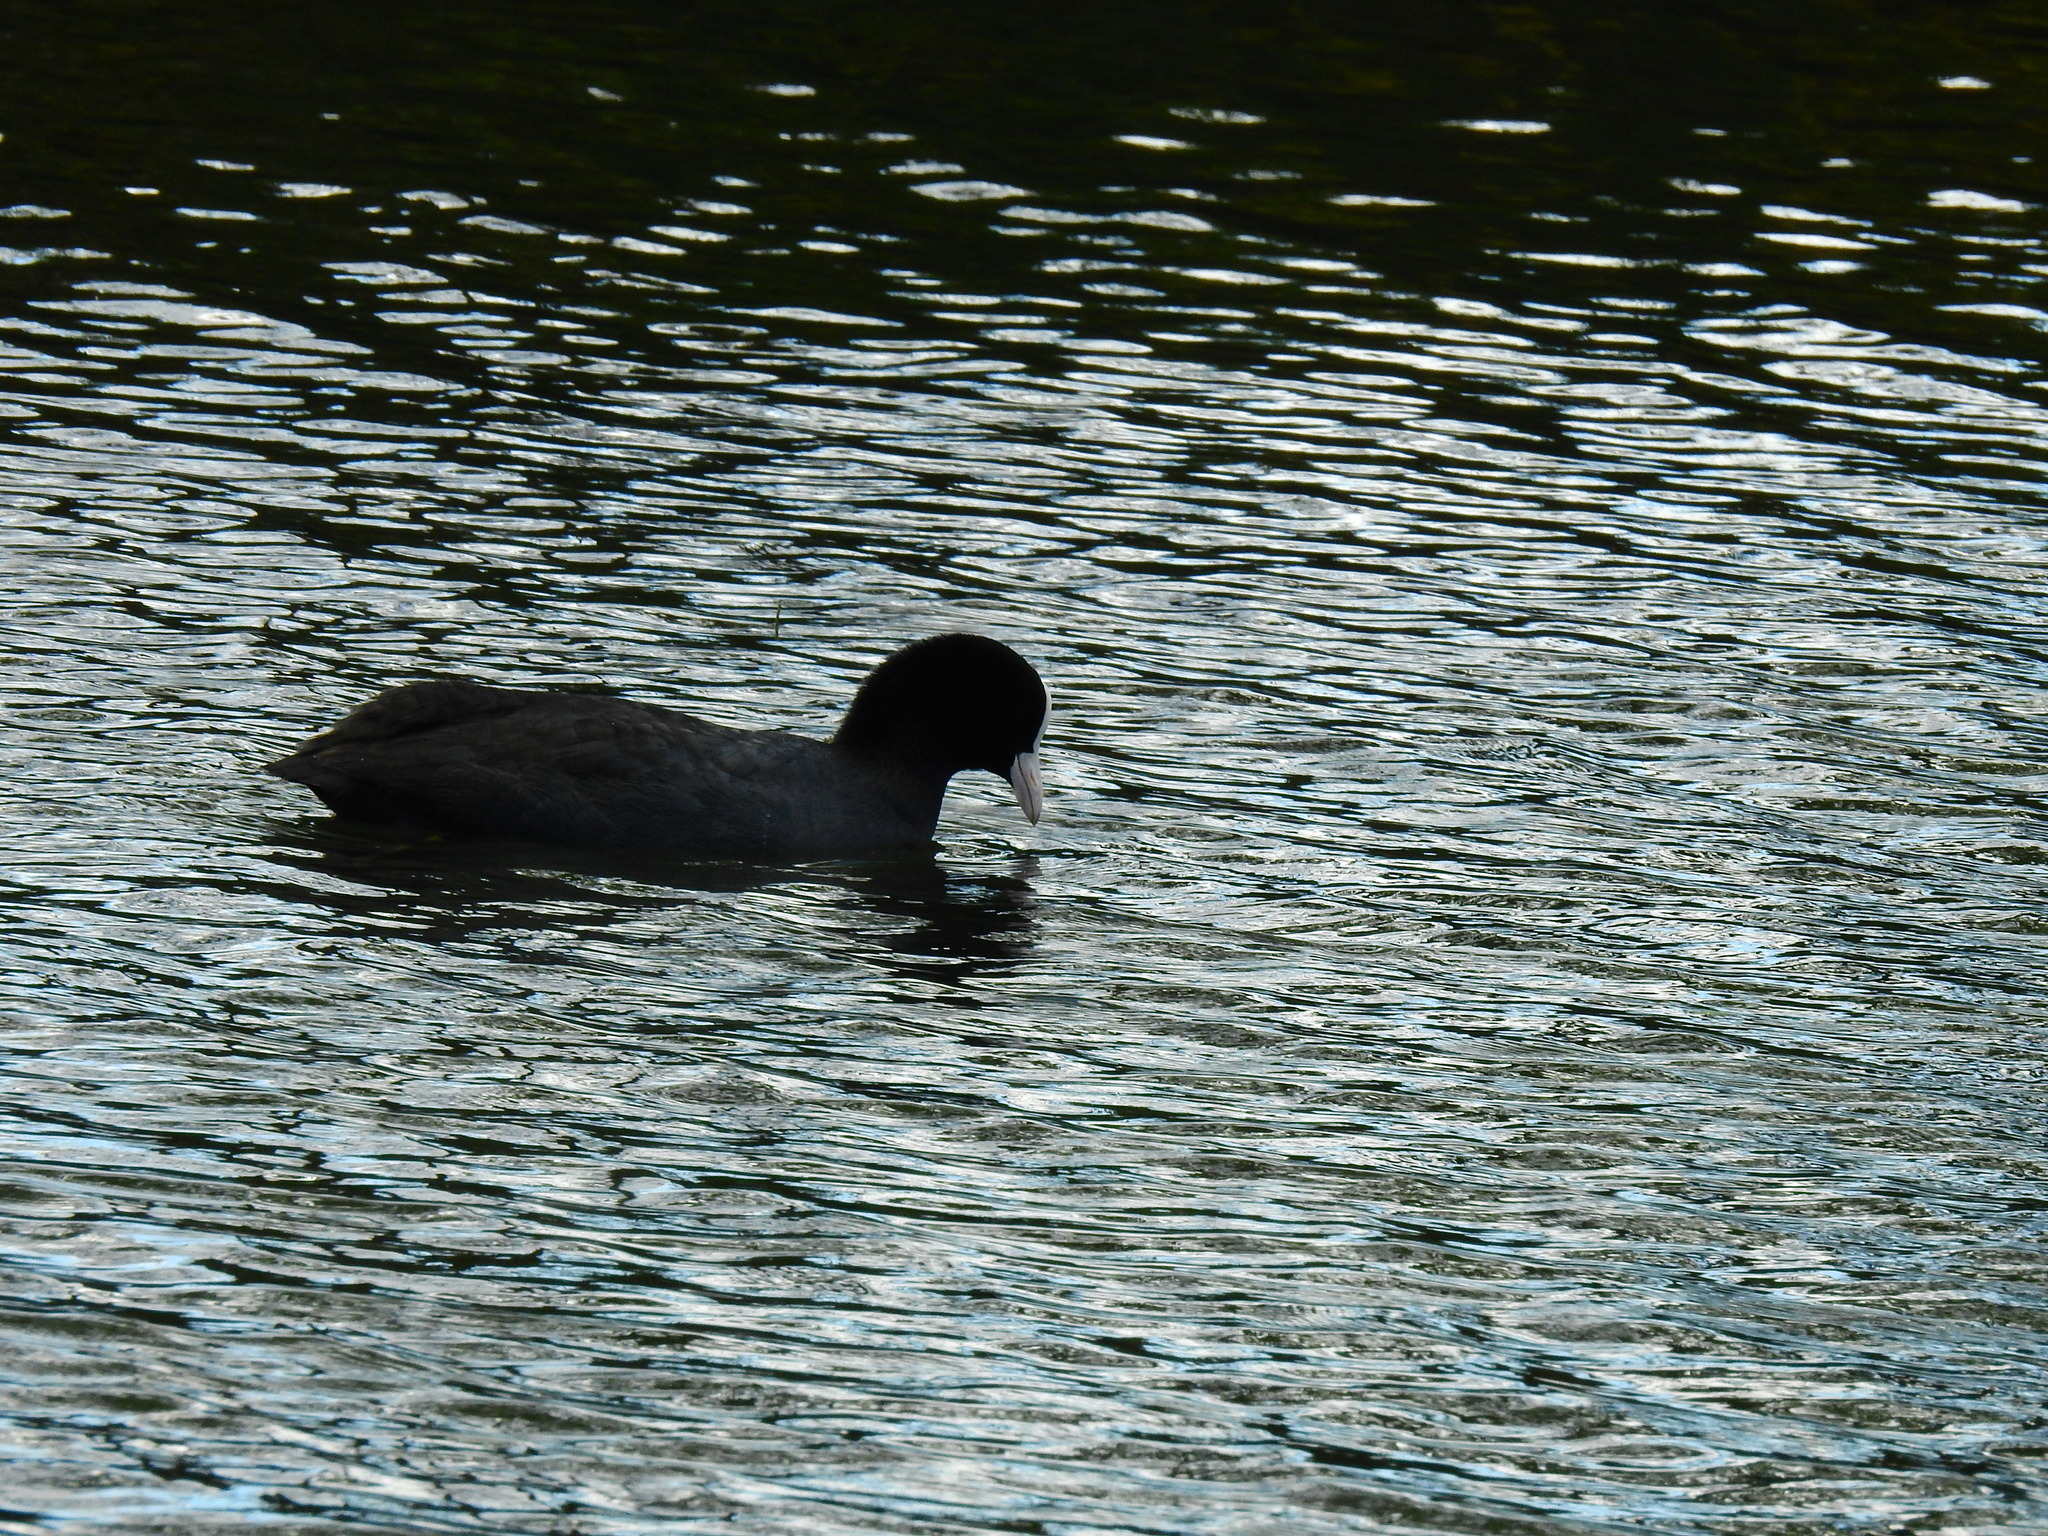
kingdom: Animalia
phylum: Chordata
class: Aves
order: Gruiformes
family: Rallidae
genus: Fulica
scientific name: Fulica atra
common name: Eurasian coot
